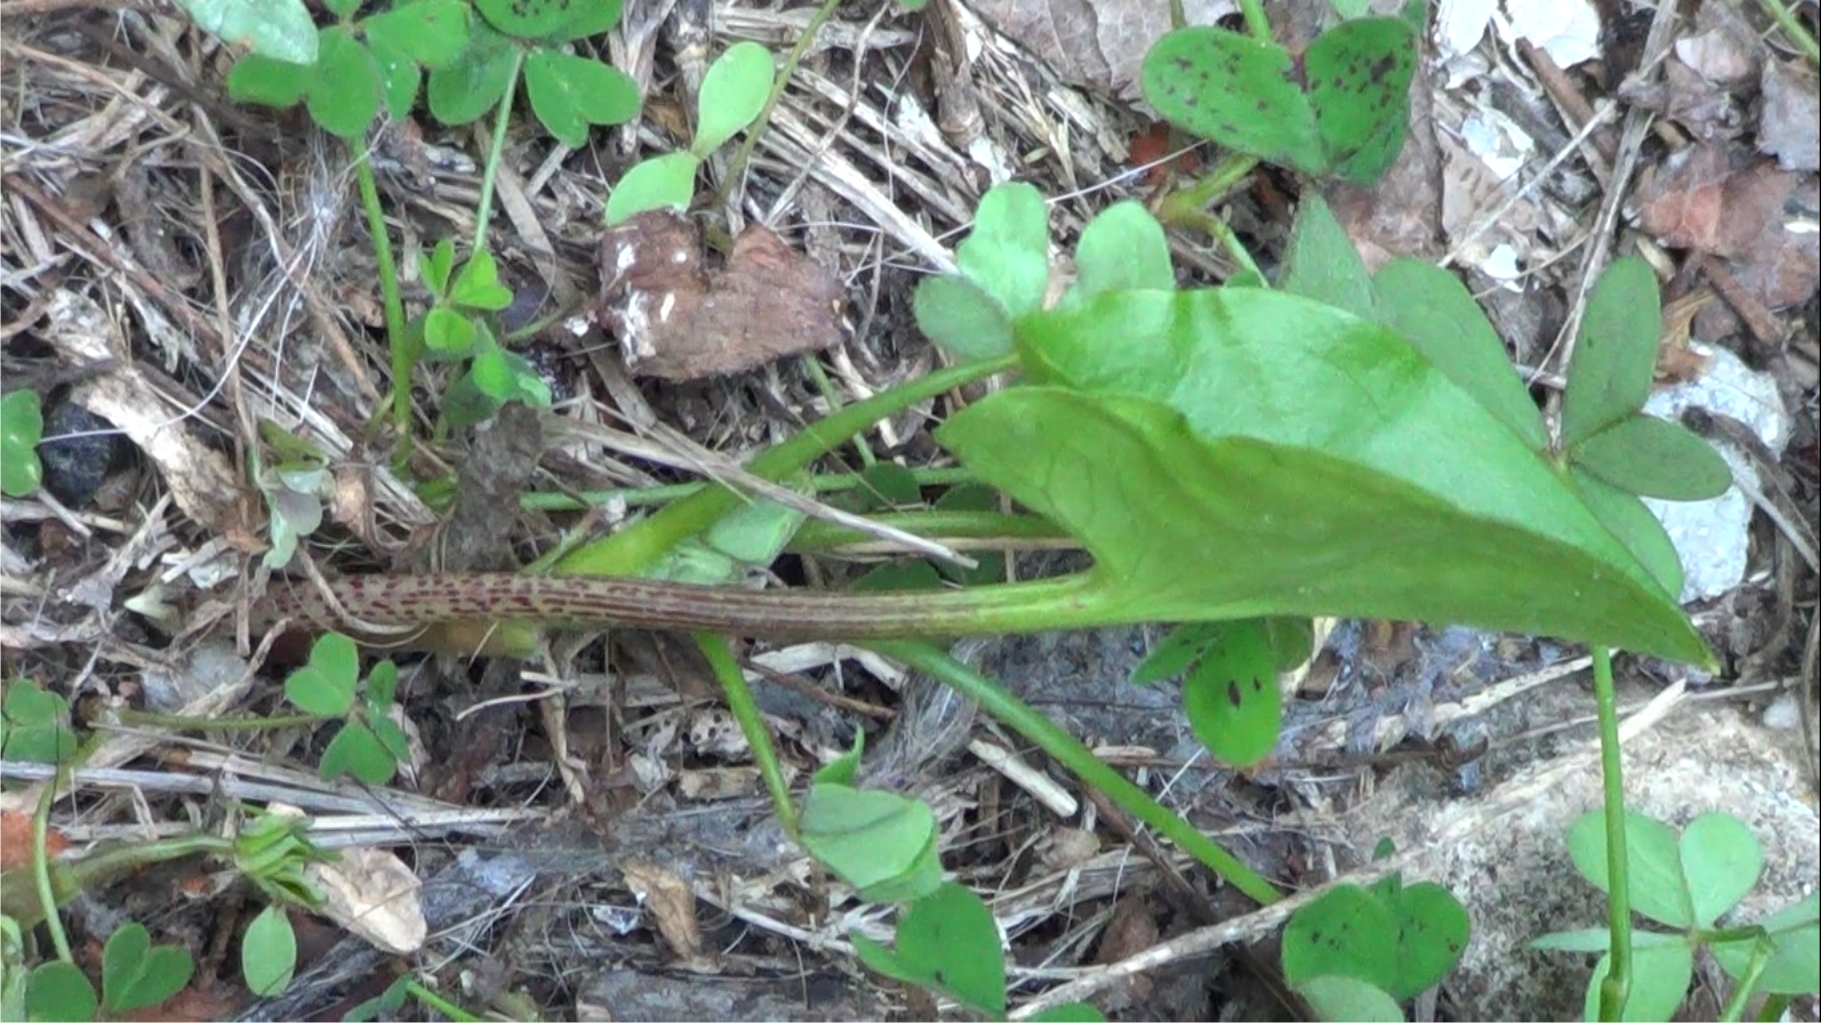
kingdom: Plantae
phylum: Tracheophyta
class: Liliopsida
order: Alismatales
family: Araceae
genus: Arisarum
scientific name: Arisarum vulgare
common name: Common arisarum
